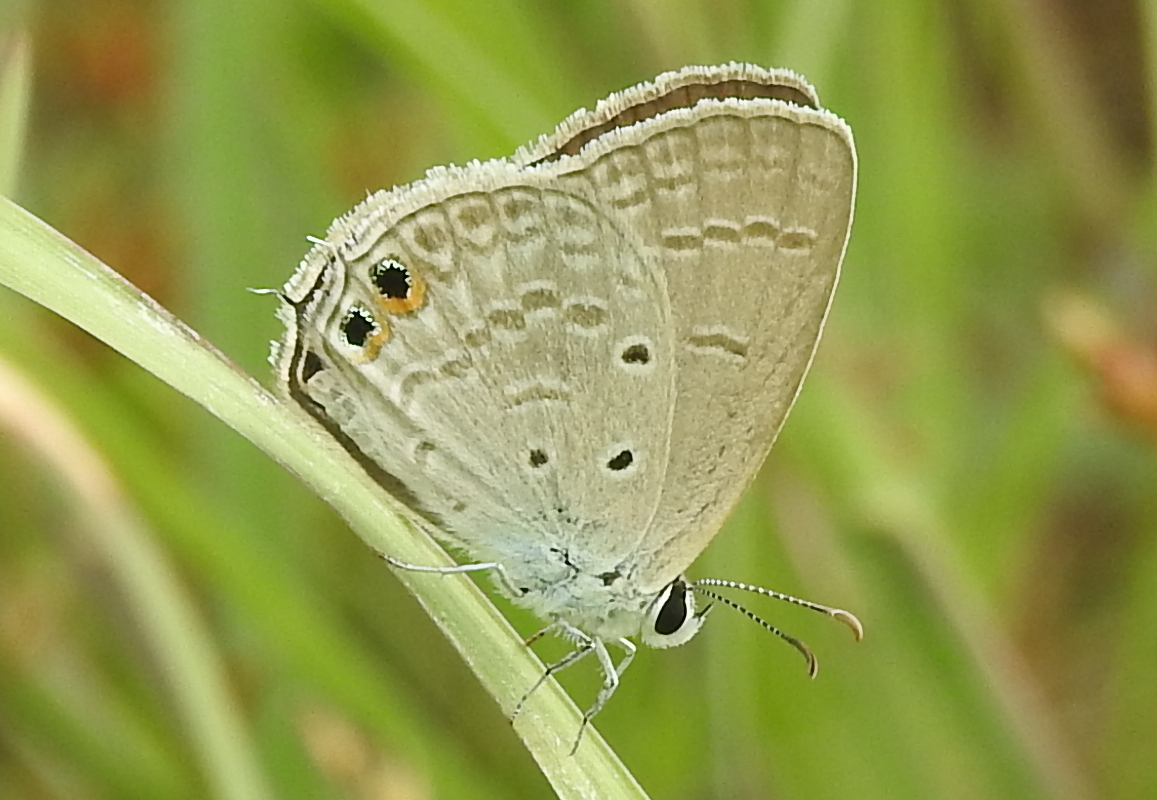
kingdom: Animalia
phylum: Arthropoda
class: Insecta
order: Lepidoptera
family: Lycaenidae
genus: Euchrysops
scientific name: Euchrysops cnejus
